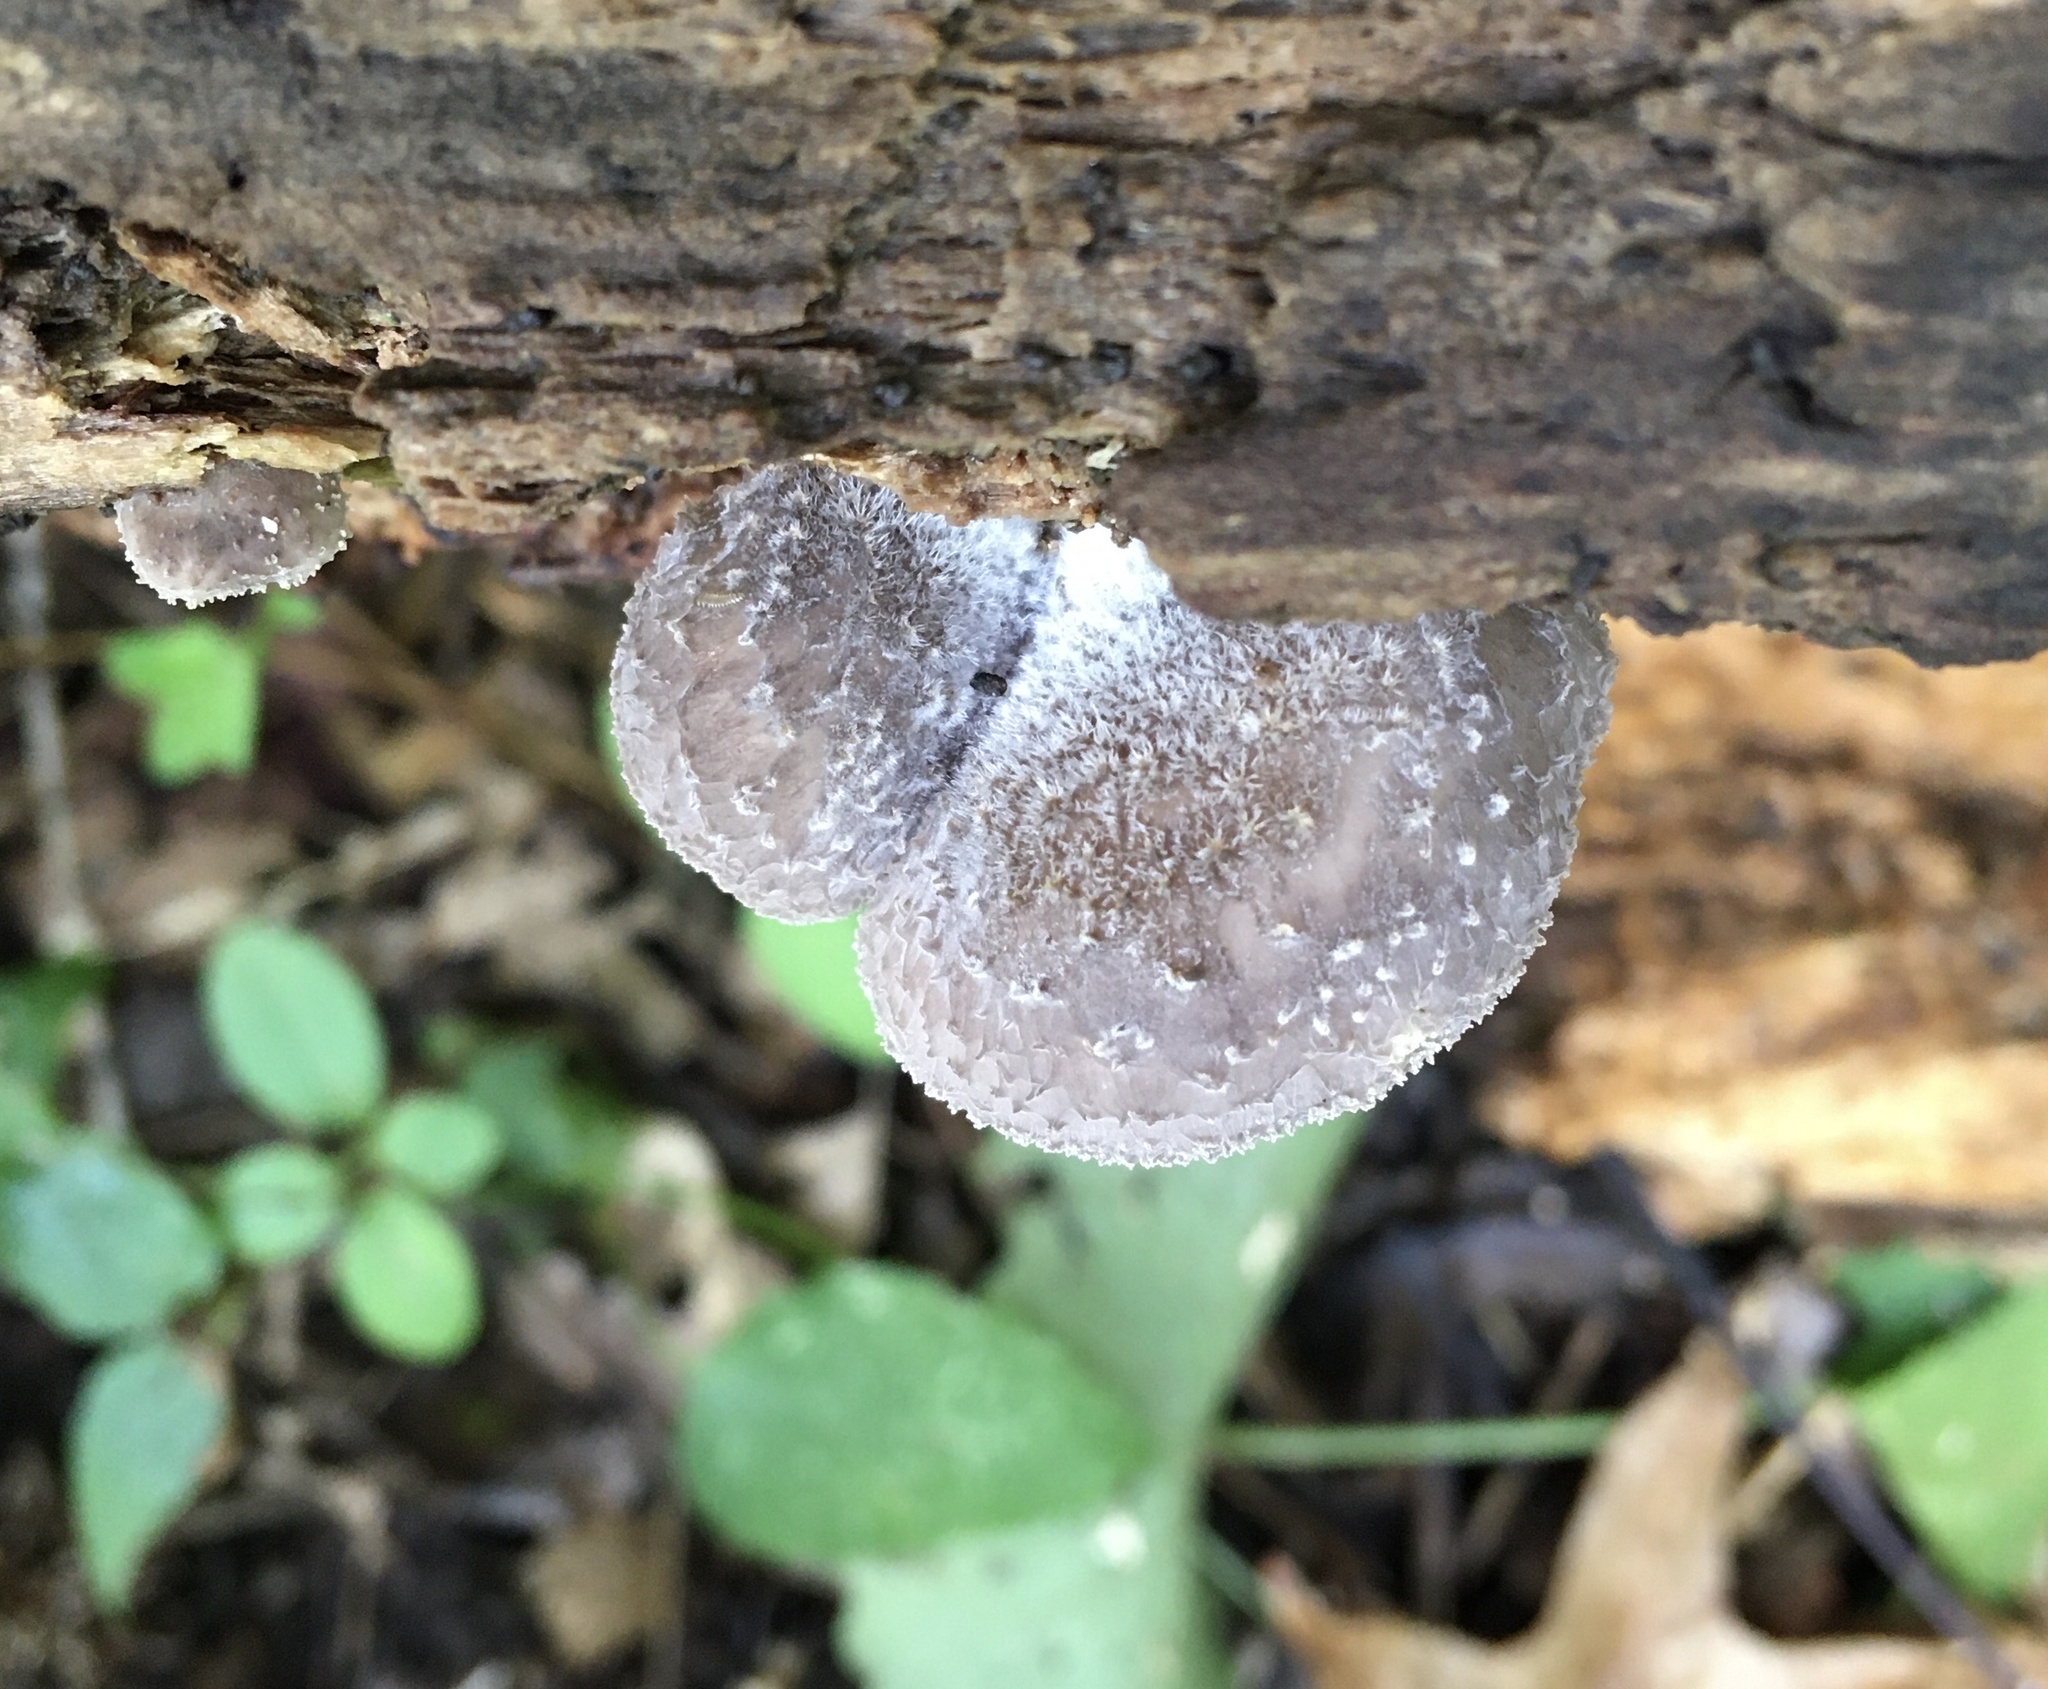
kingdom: Fungi
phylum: Basidiomycota
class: Agaricomycetes
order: Agaricales
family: Pleurotaceae
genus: Hohenbuehelia
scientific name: Hohenbuehelia mastrucata
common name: Woolly oyster
